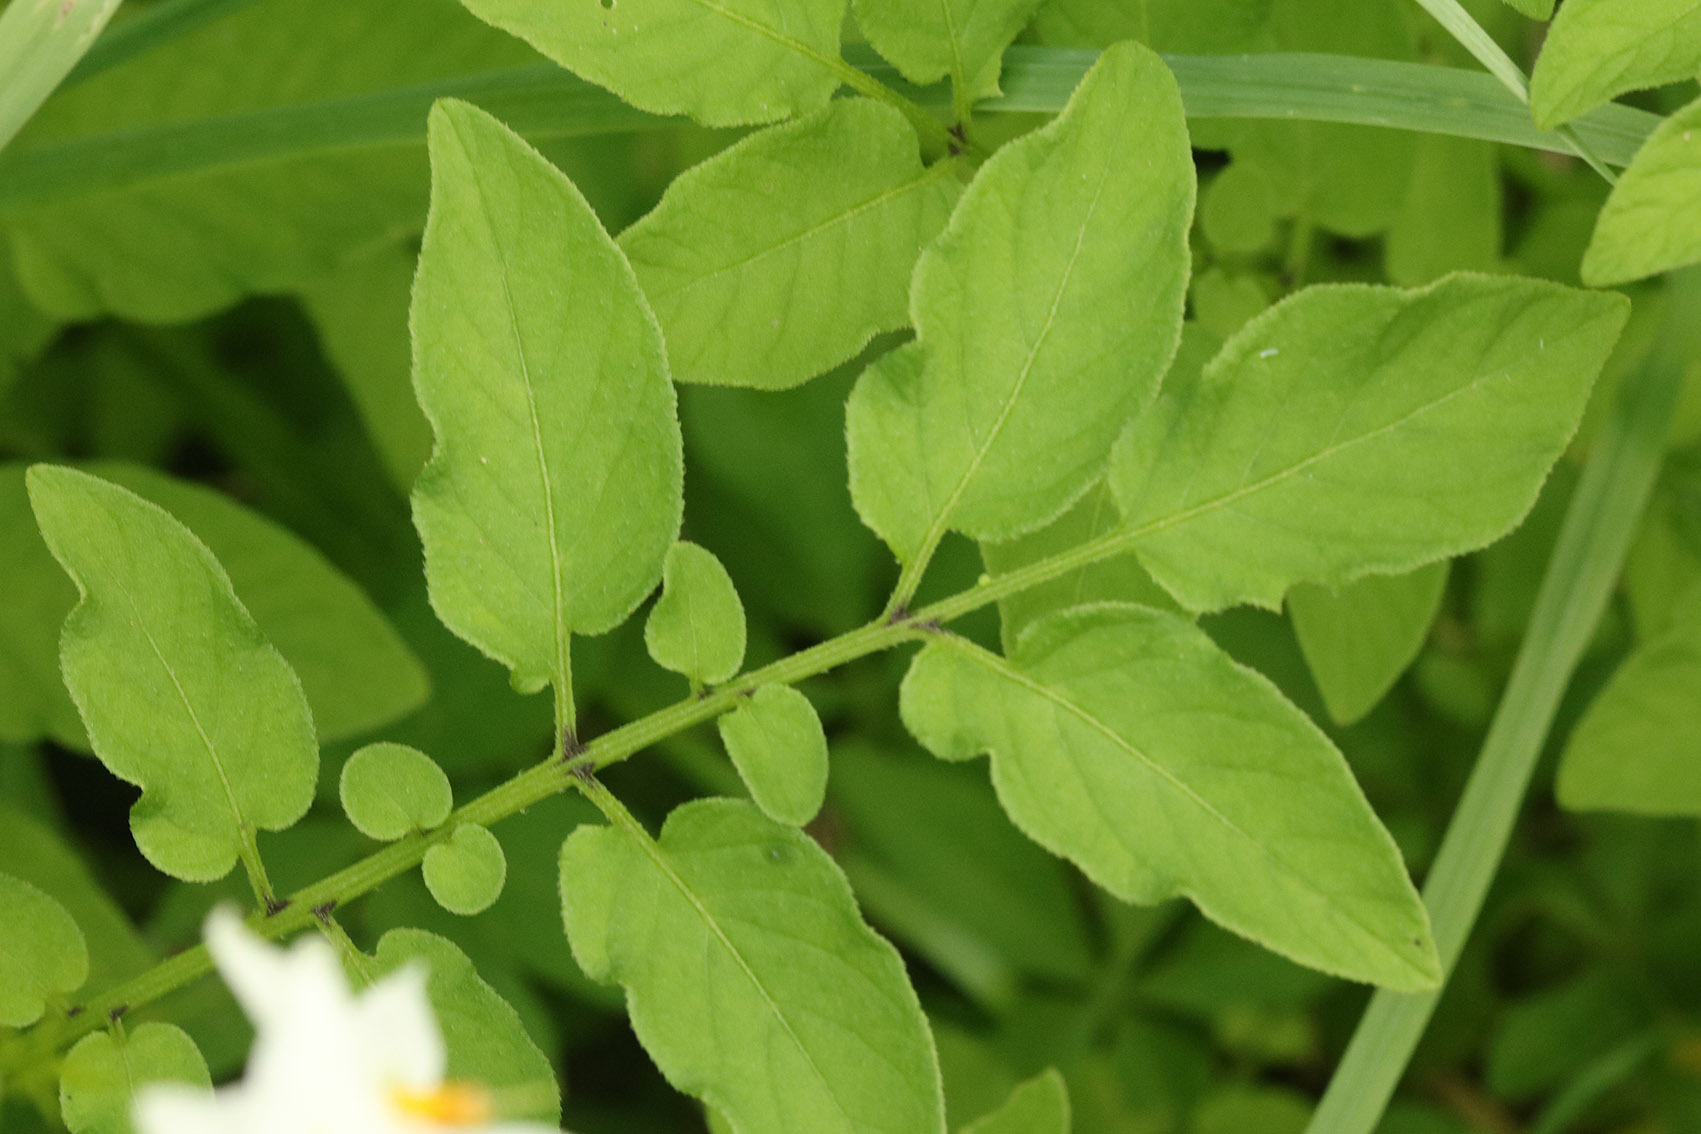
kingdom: Plantae
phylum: Tracheophyta
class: Magnoliopsida
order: Solanales
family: Solanaceae
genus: Solanum
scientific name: Solanum chacoense
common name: Chaco potato
